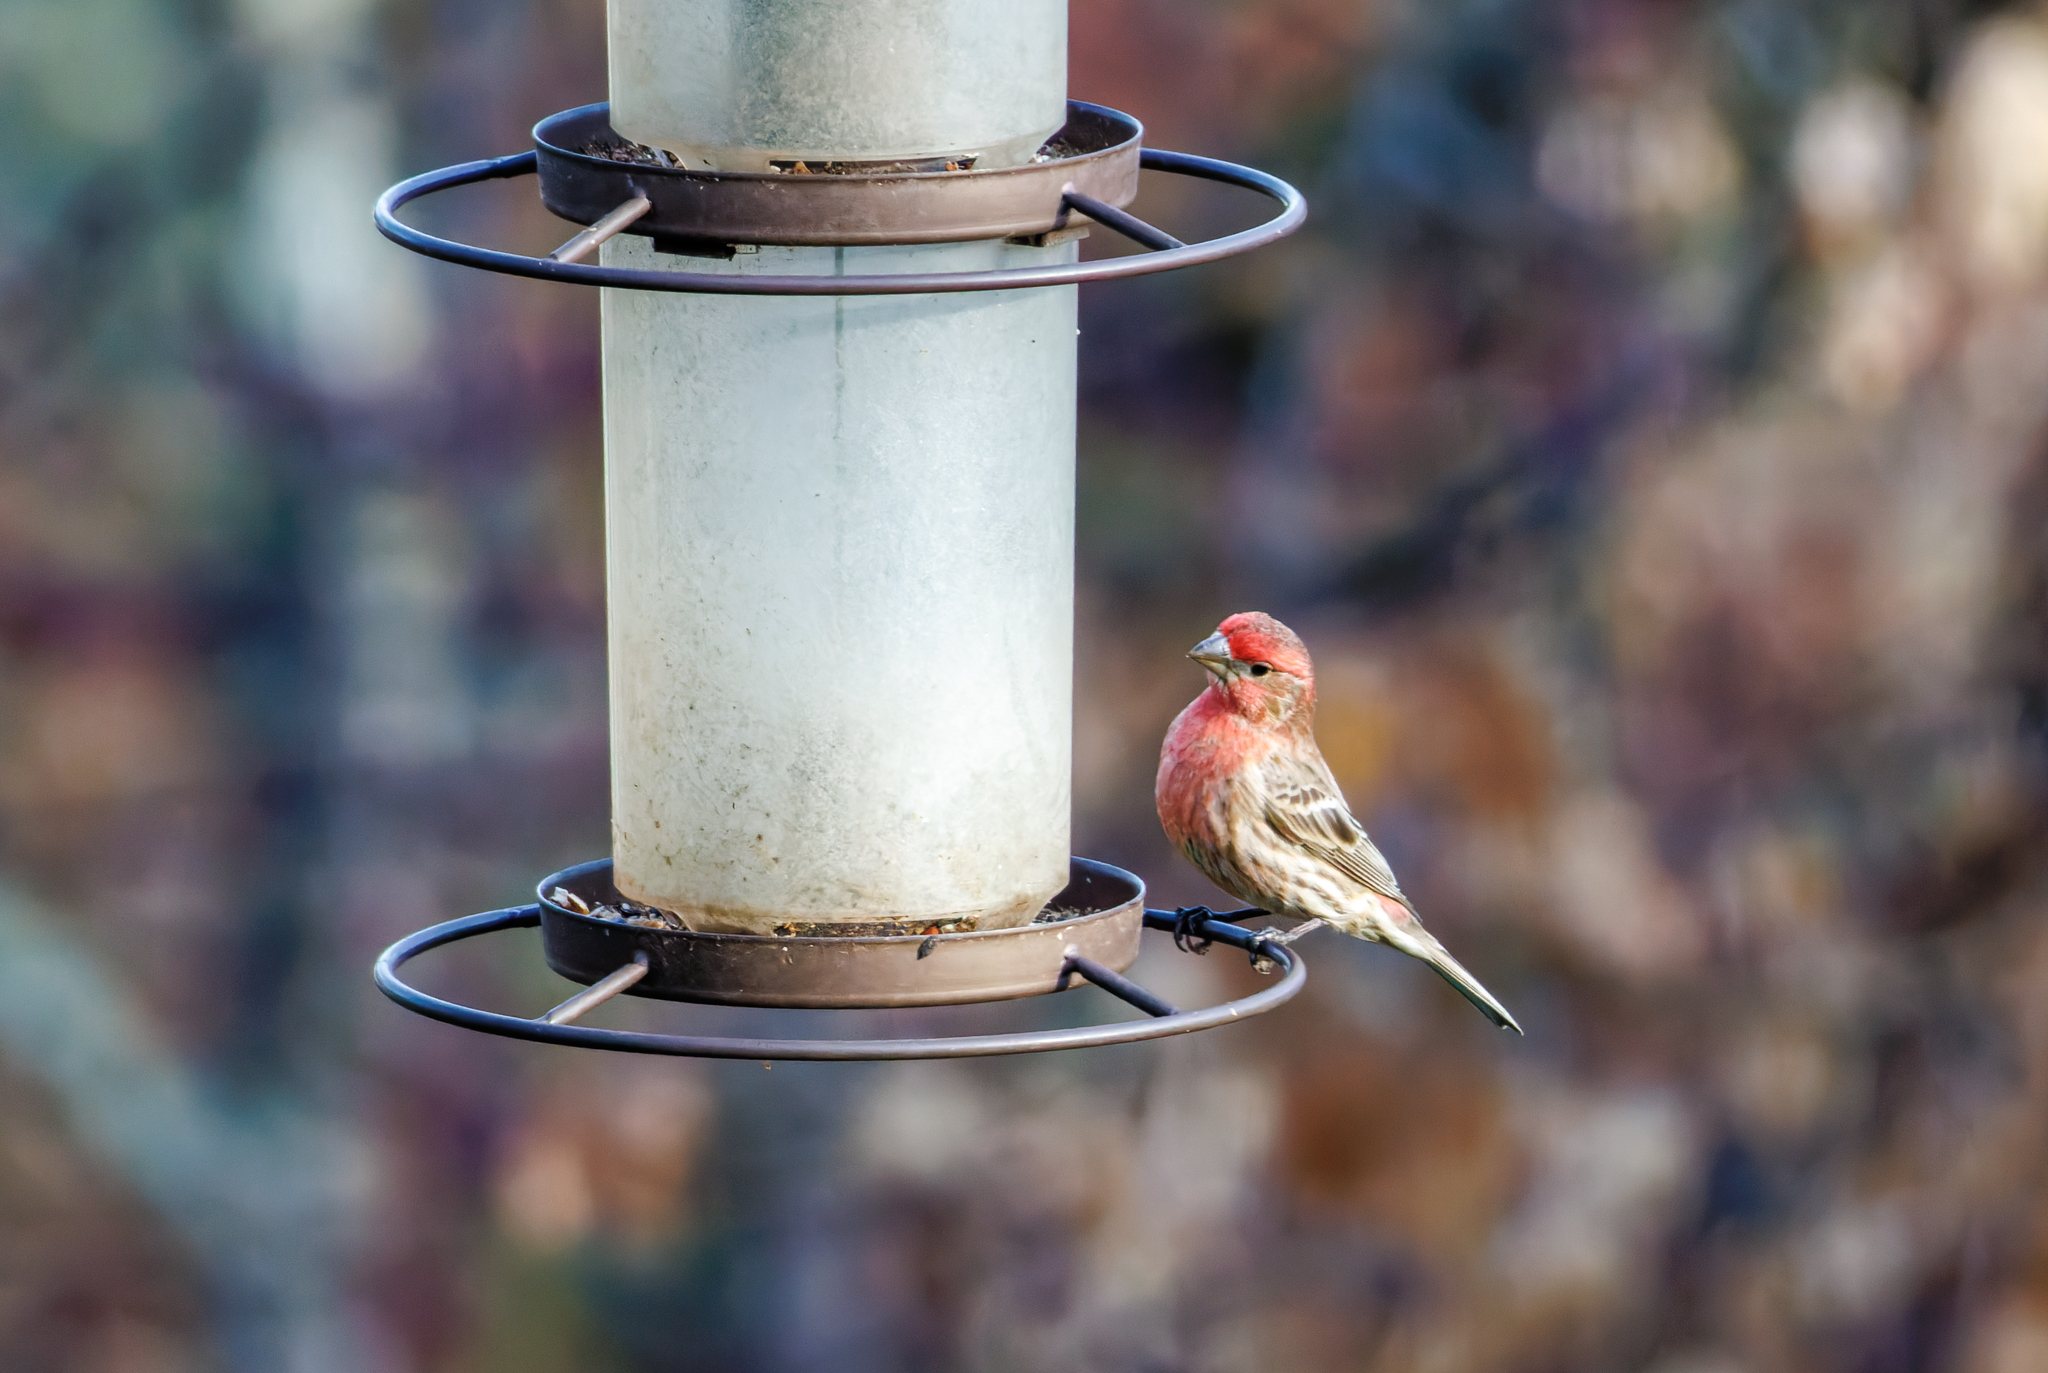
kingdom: Animalia
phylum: Chordata
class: Aves
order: Passeriformes
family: Fringillidae
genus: Haemorhous
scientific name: Haemorhous mexicanus
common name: House finch
